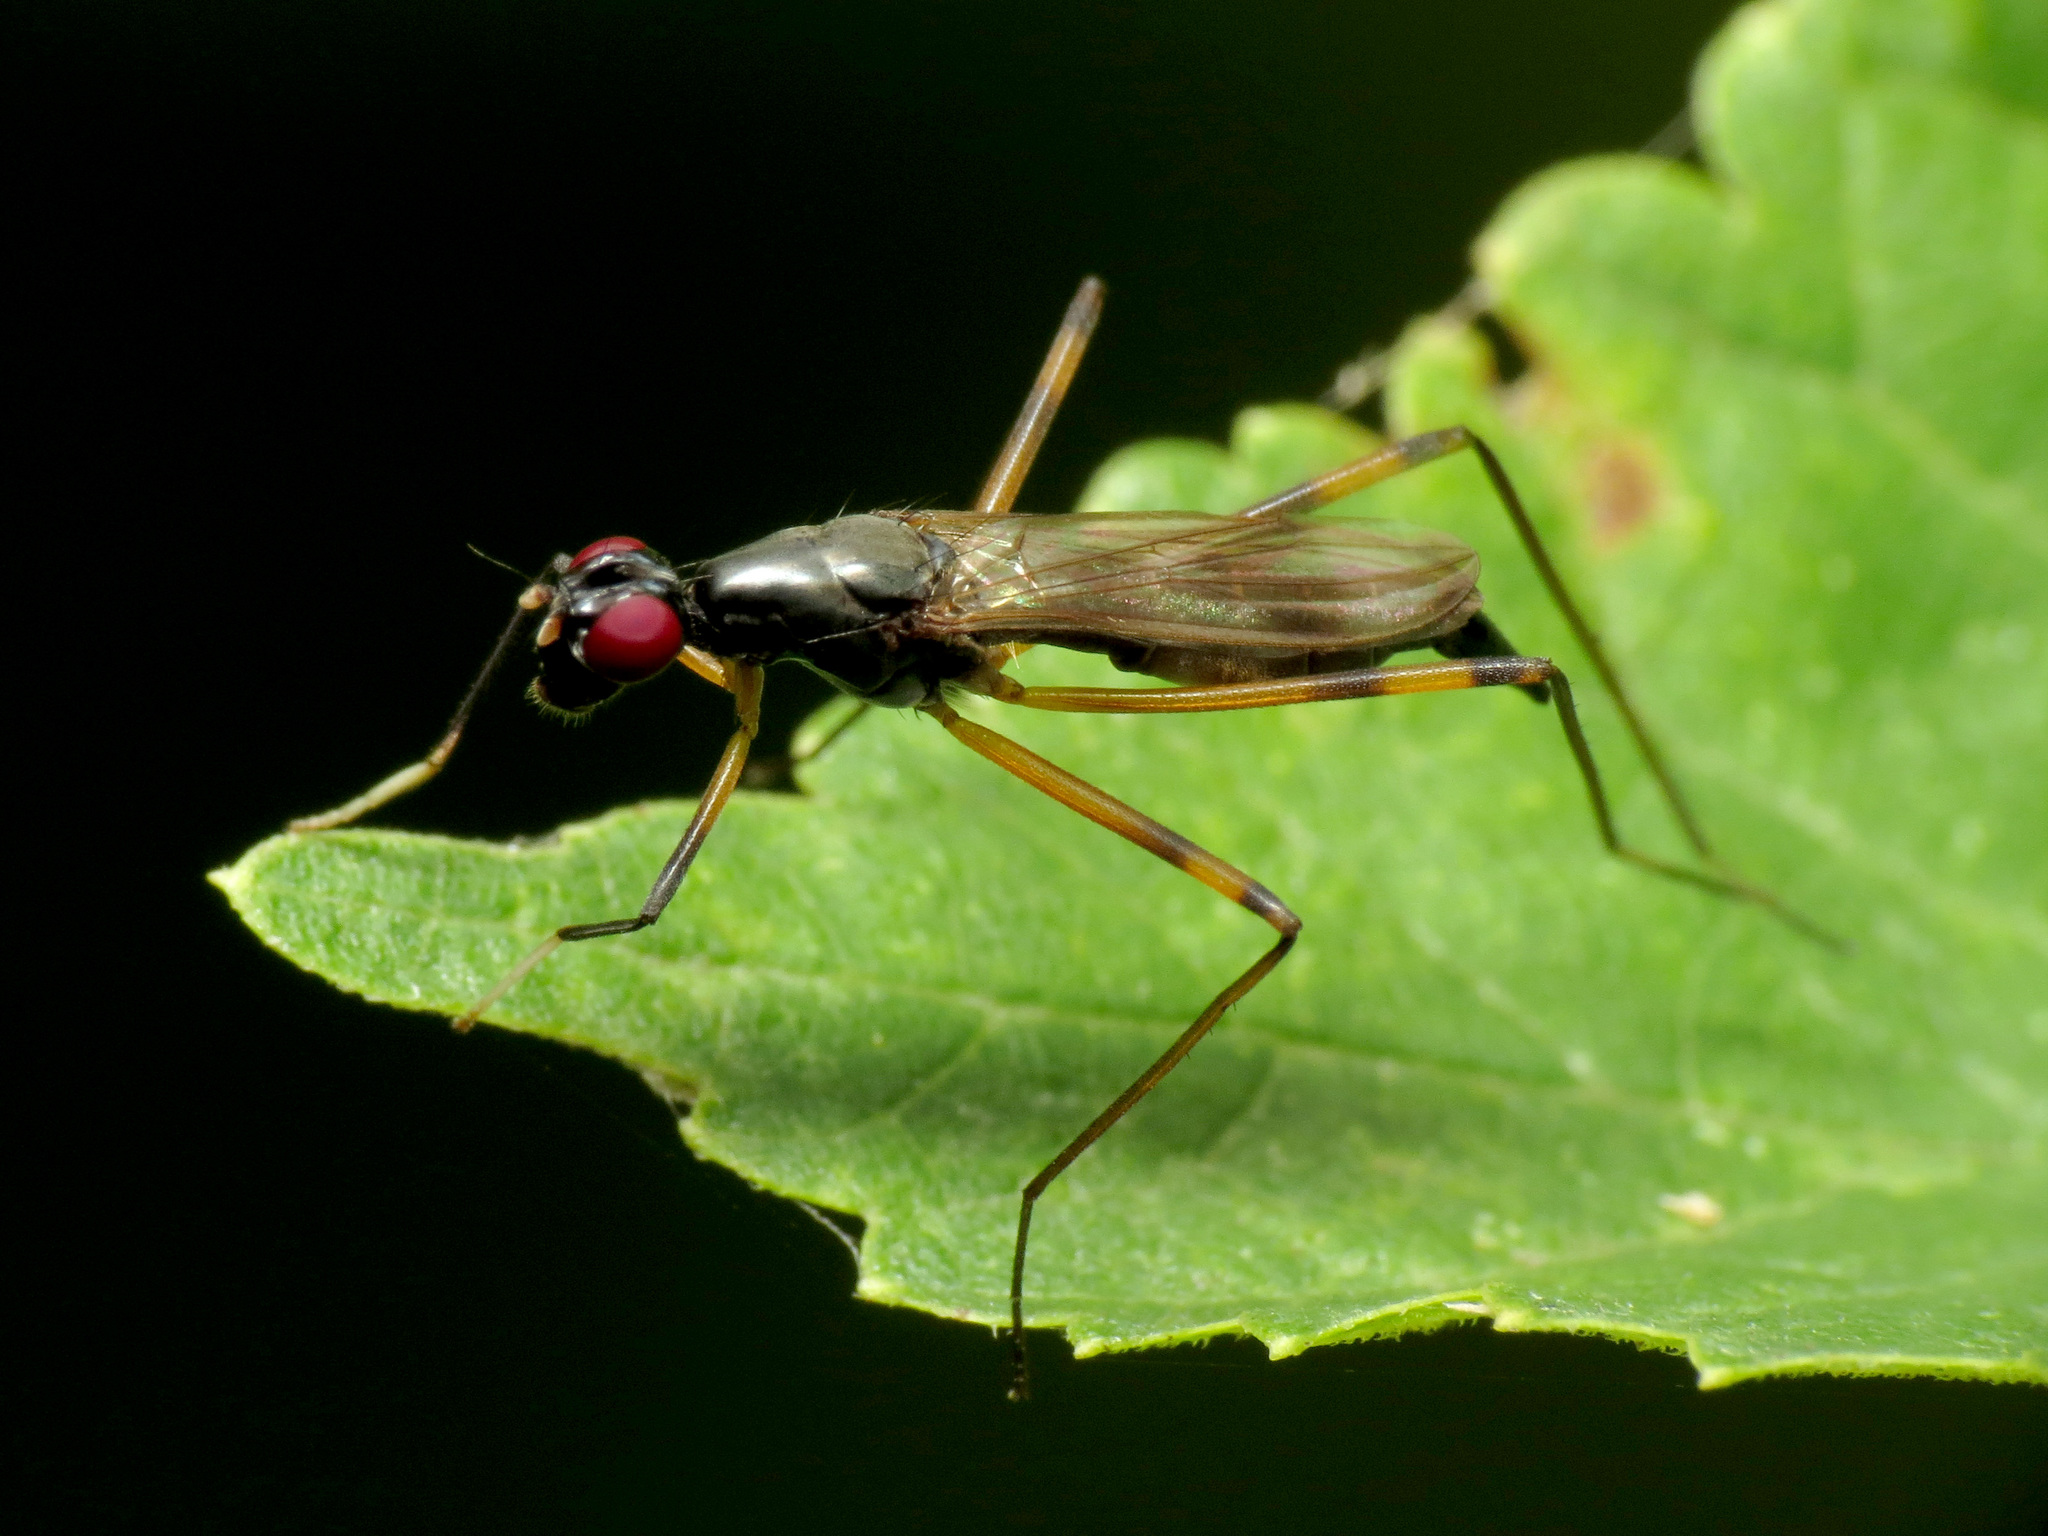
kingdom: Animalia
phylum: Arthropoda
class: Insecta
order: Diptera
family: Micropezidae
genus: Rainieria
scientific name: Rainieria antennaepes
